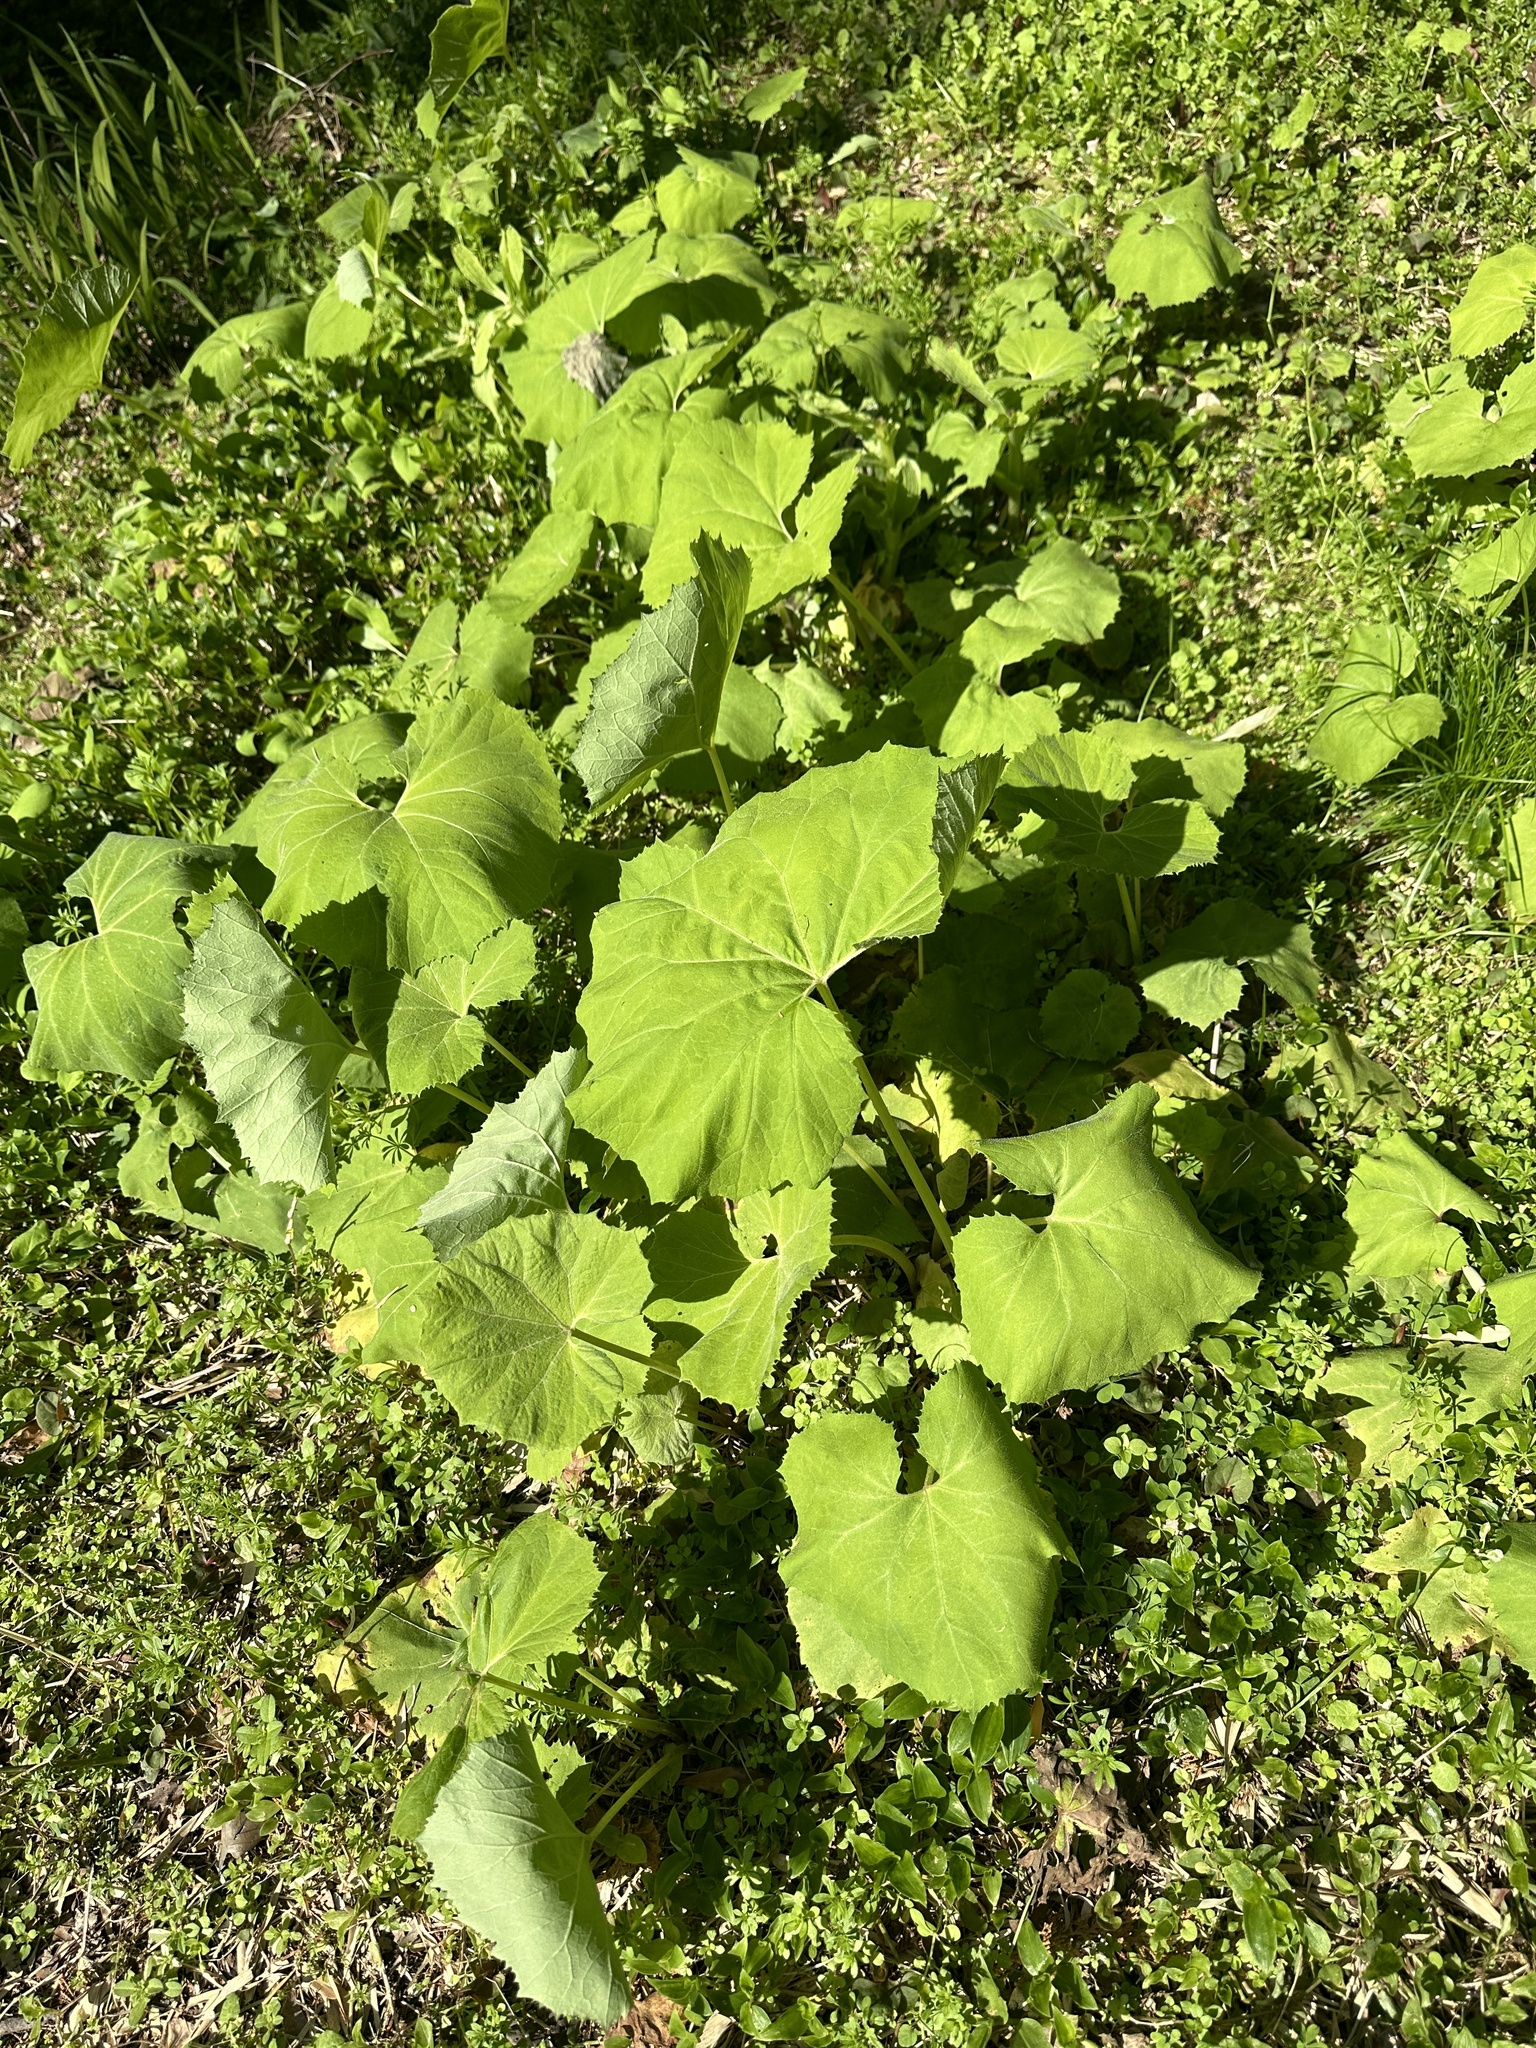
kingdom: Plantae
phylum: Tracheophyta
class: Magnoliopsida
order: Asterales
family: Asteraceae
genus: Petasites
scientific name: Petasites japonicus
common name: Giant butterbur
